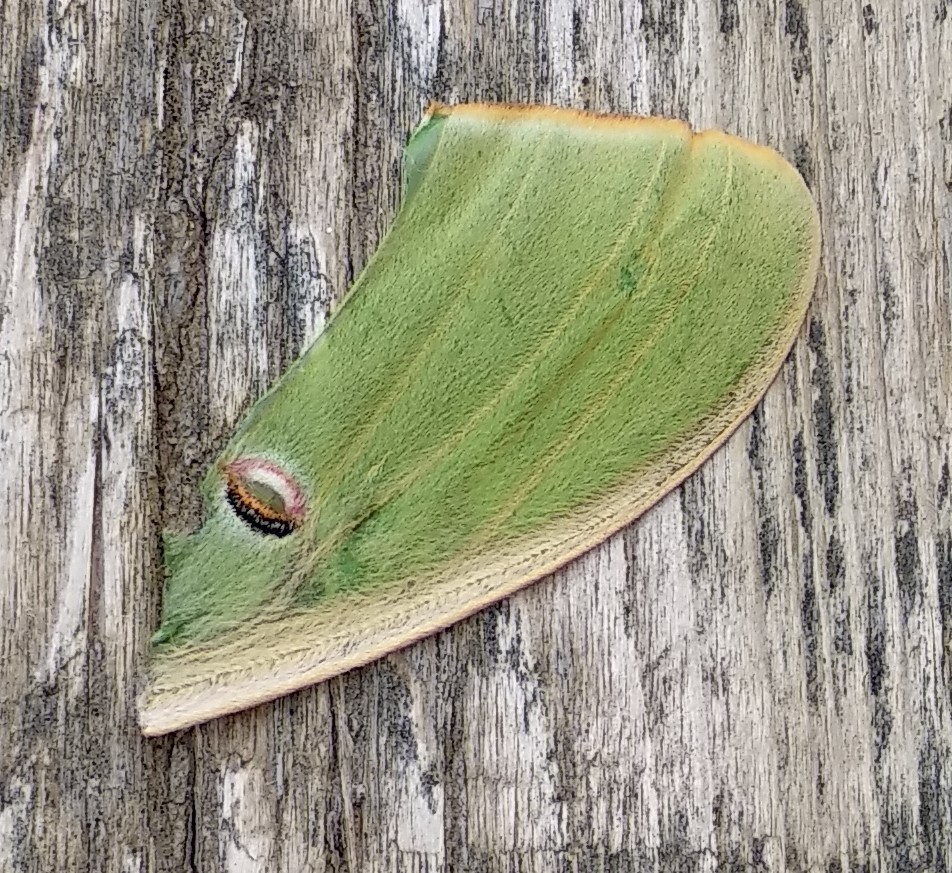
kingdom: Animalia
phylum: Arthropoda
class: Insecta
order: Lepidoptera
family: Saturniidae
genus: Actias
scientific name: Actias luna
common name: Luna moth
